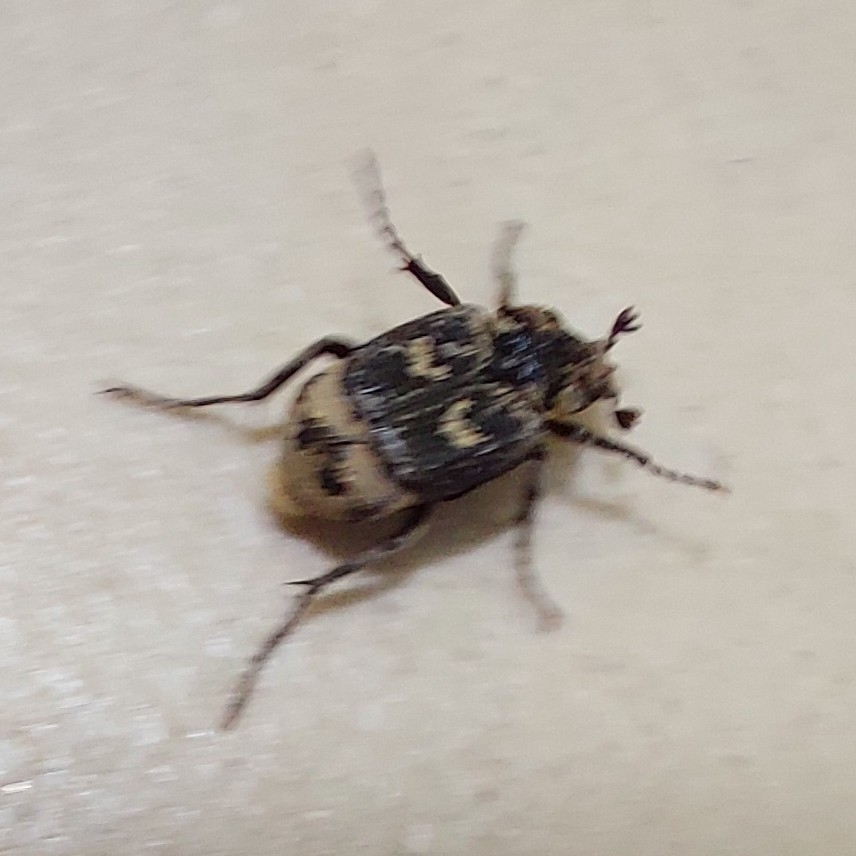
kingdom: Animalia
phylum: Arthropoda
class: Insecta
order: Coleoptera
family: Scarabaeidae
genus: Valgus
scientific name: Valgus hemipterus
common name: Bug flower chafer
